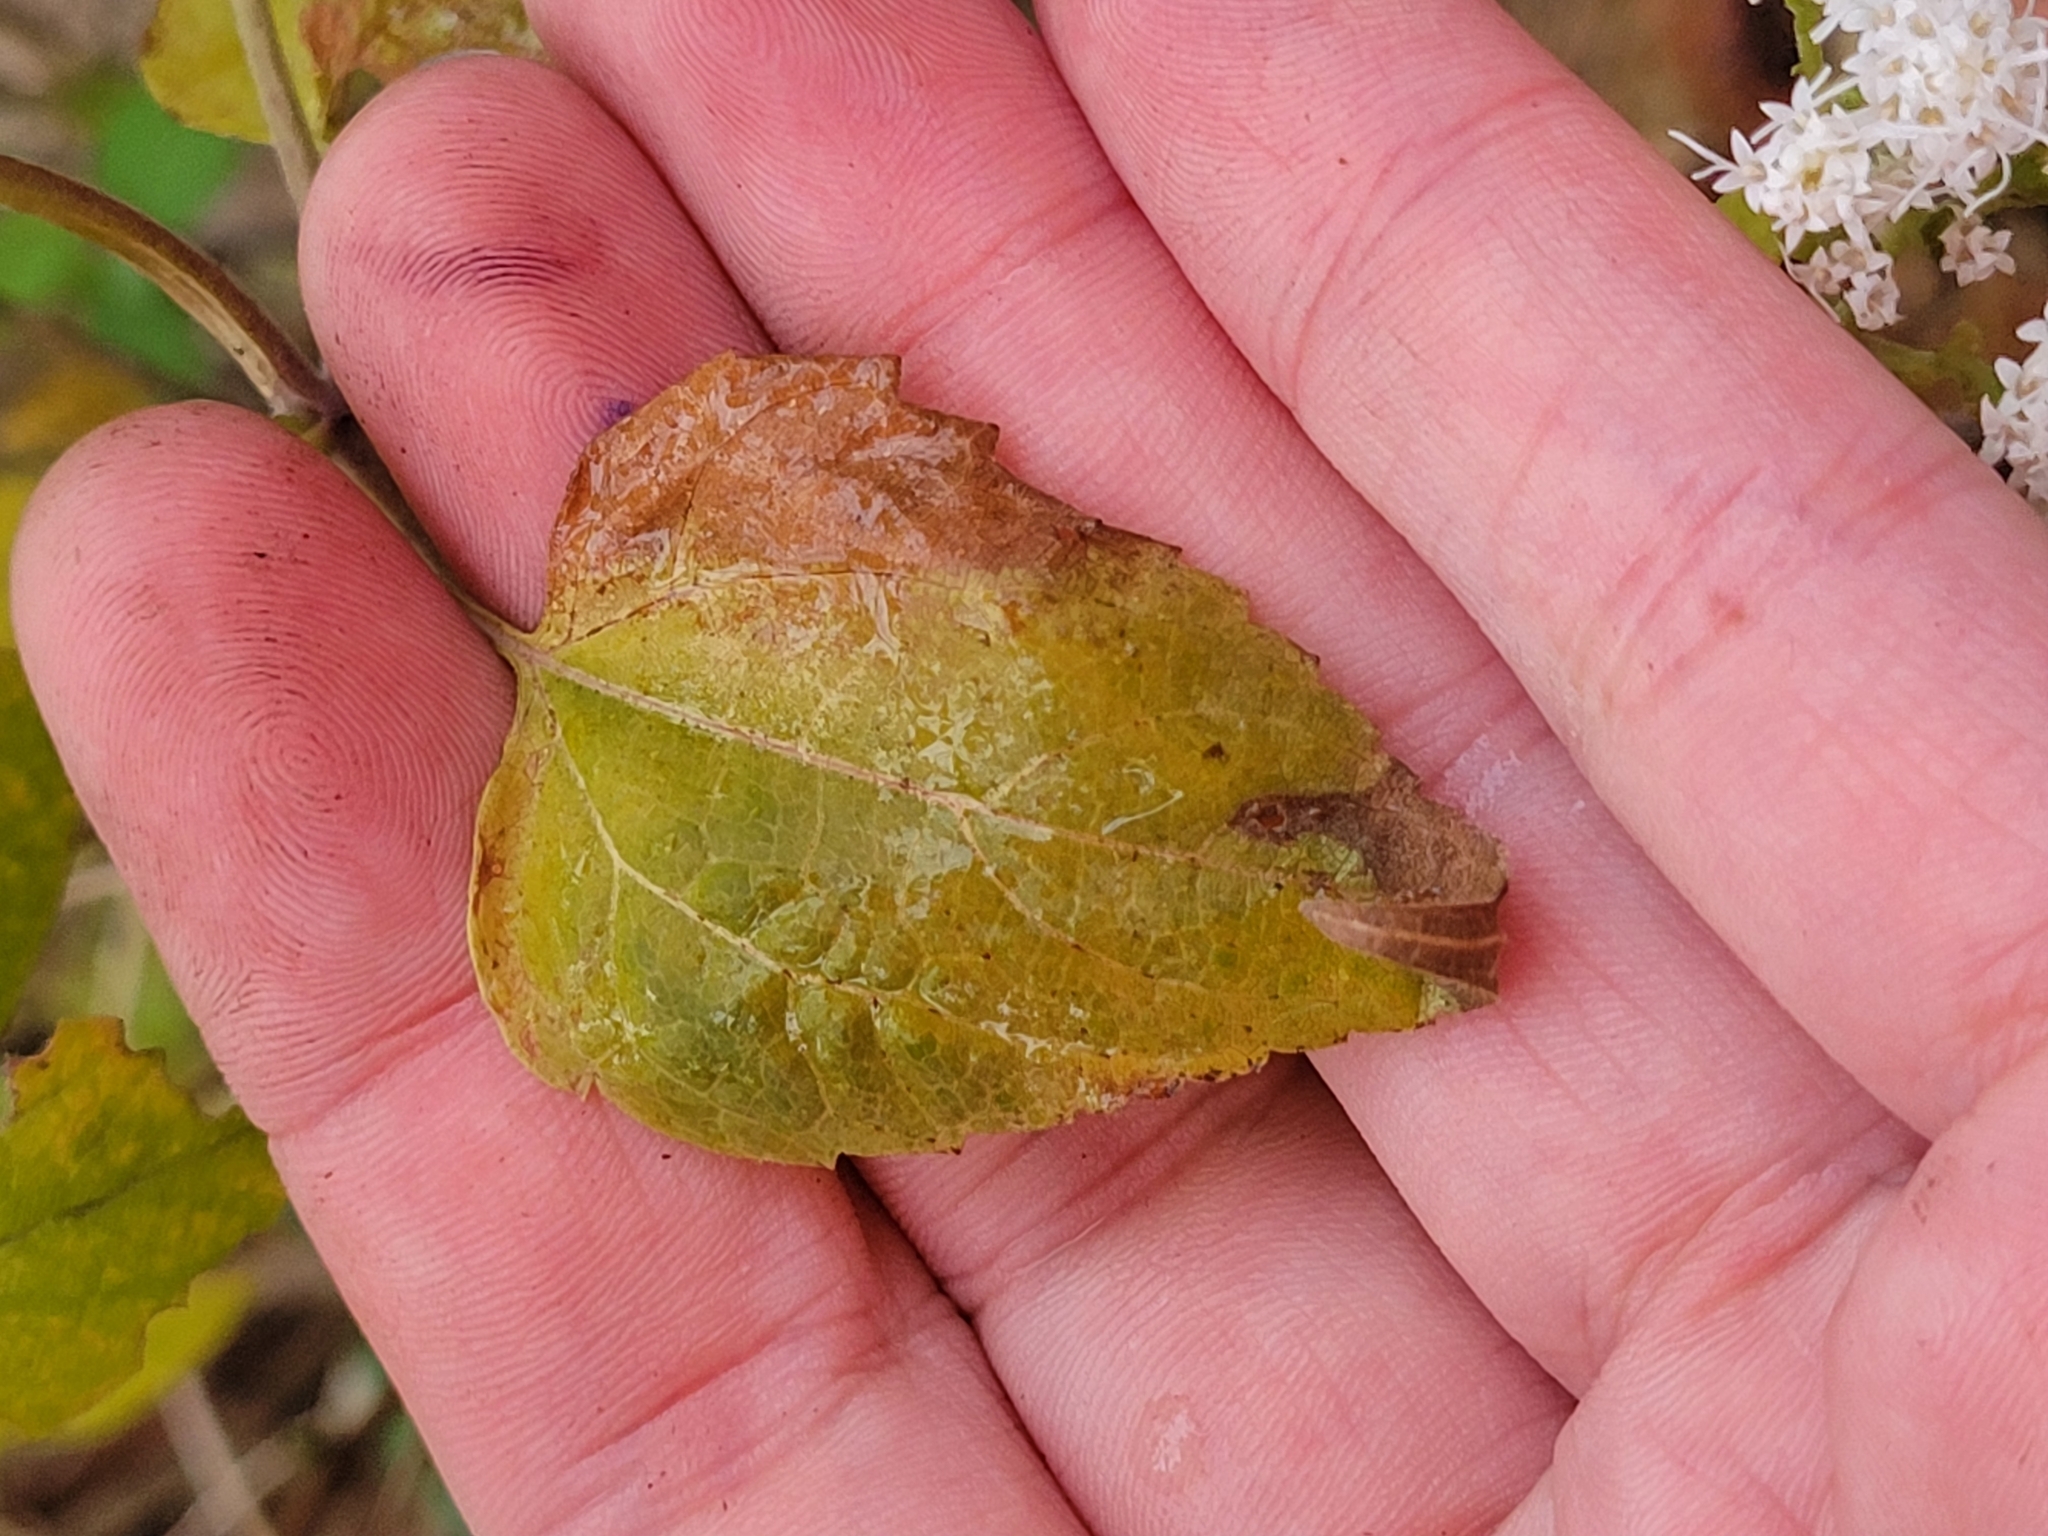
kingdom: Plantae
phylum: Tracheophyta
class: Magnoliopsida
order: Asterales
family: Asteraceae
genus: Ageratina
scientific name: Ageratina altissima
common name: White snakeroot
